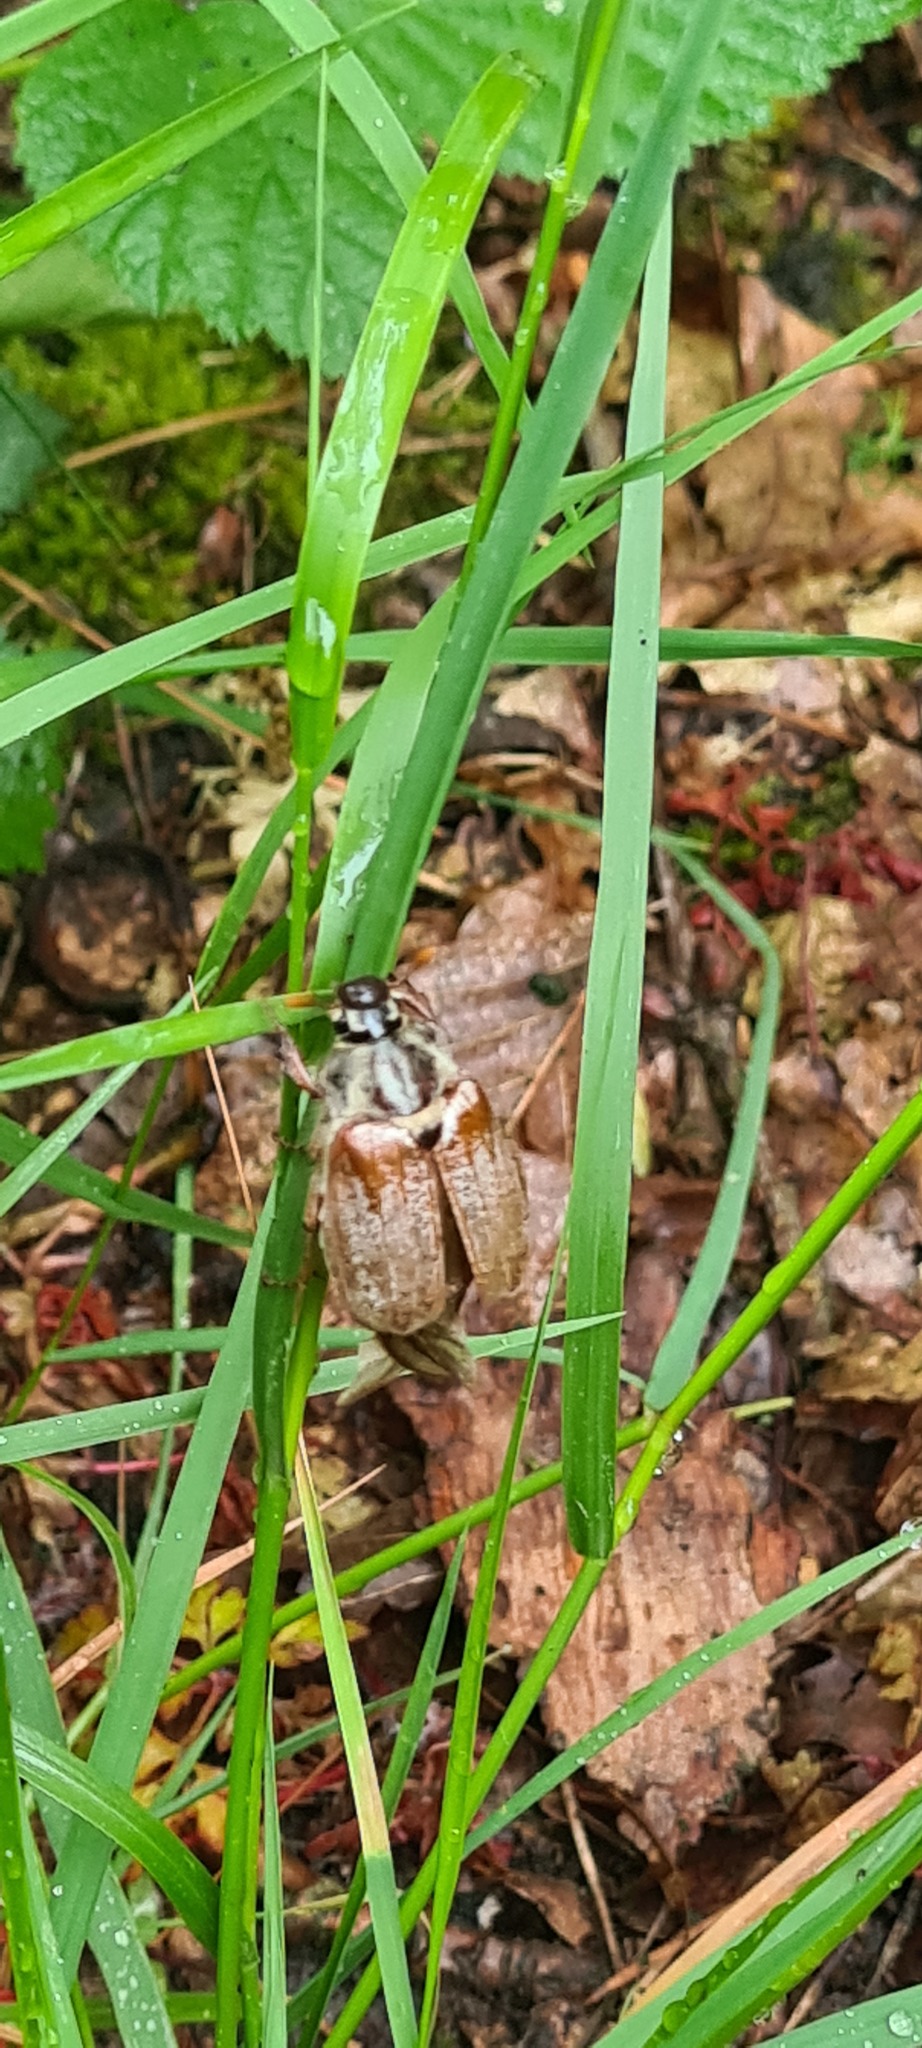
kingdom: Animalia
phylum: Arthropoda
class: Insecta
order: Coleoptera
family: Scarabaeidae
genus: Melolontha
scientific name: Melolontha melolontha
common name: Cockchafer maybeetle
